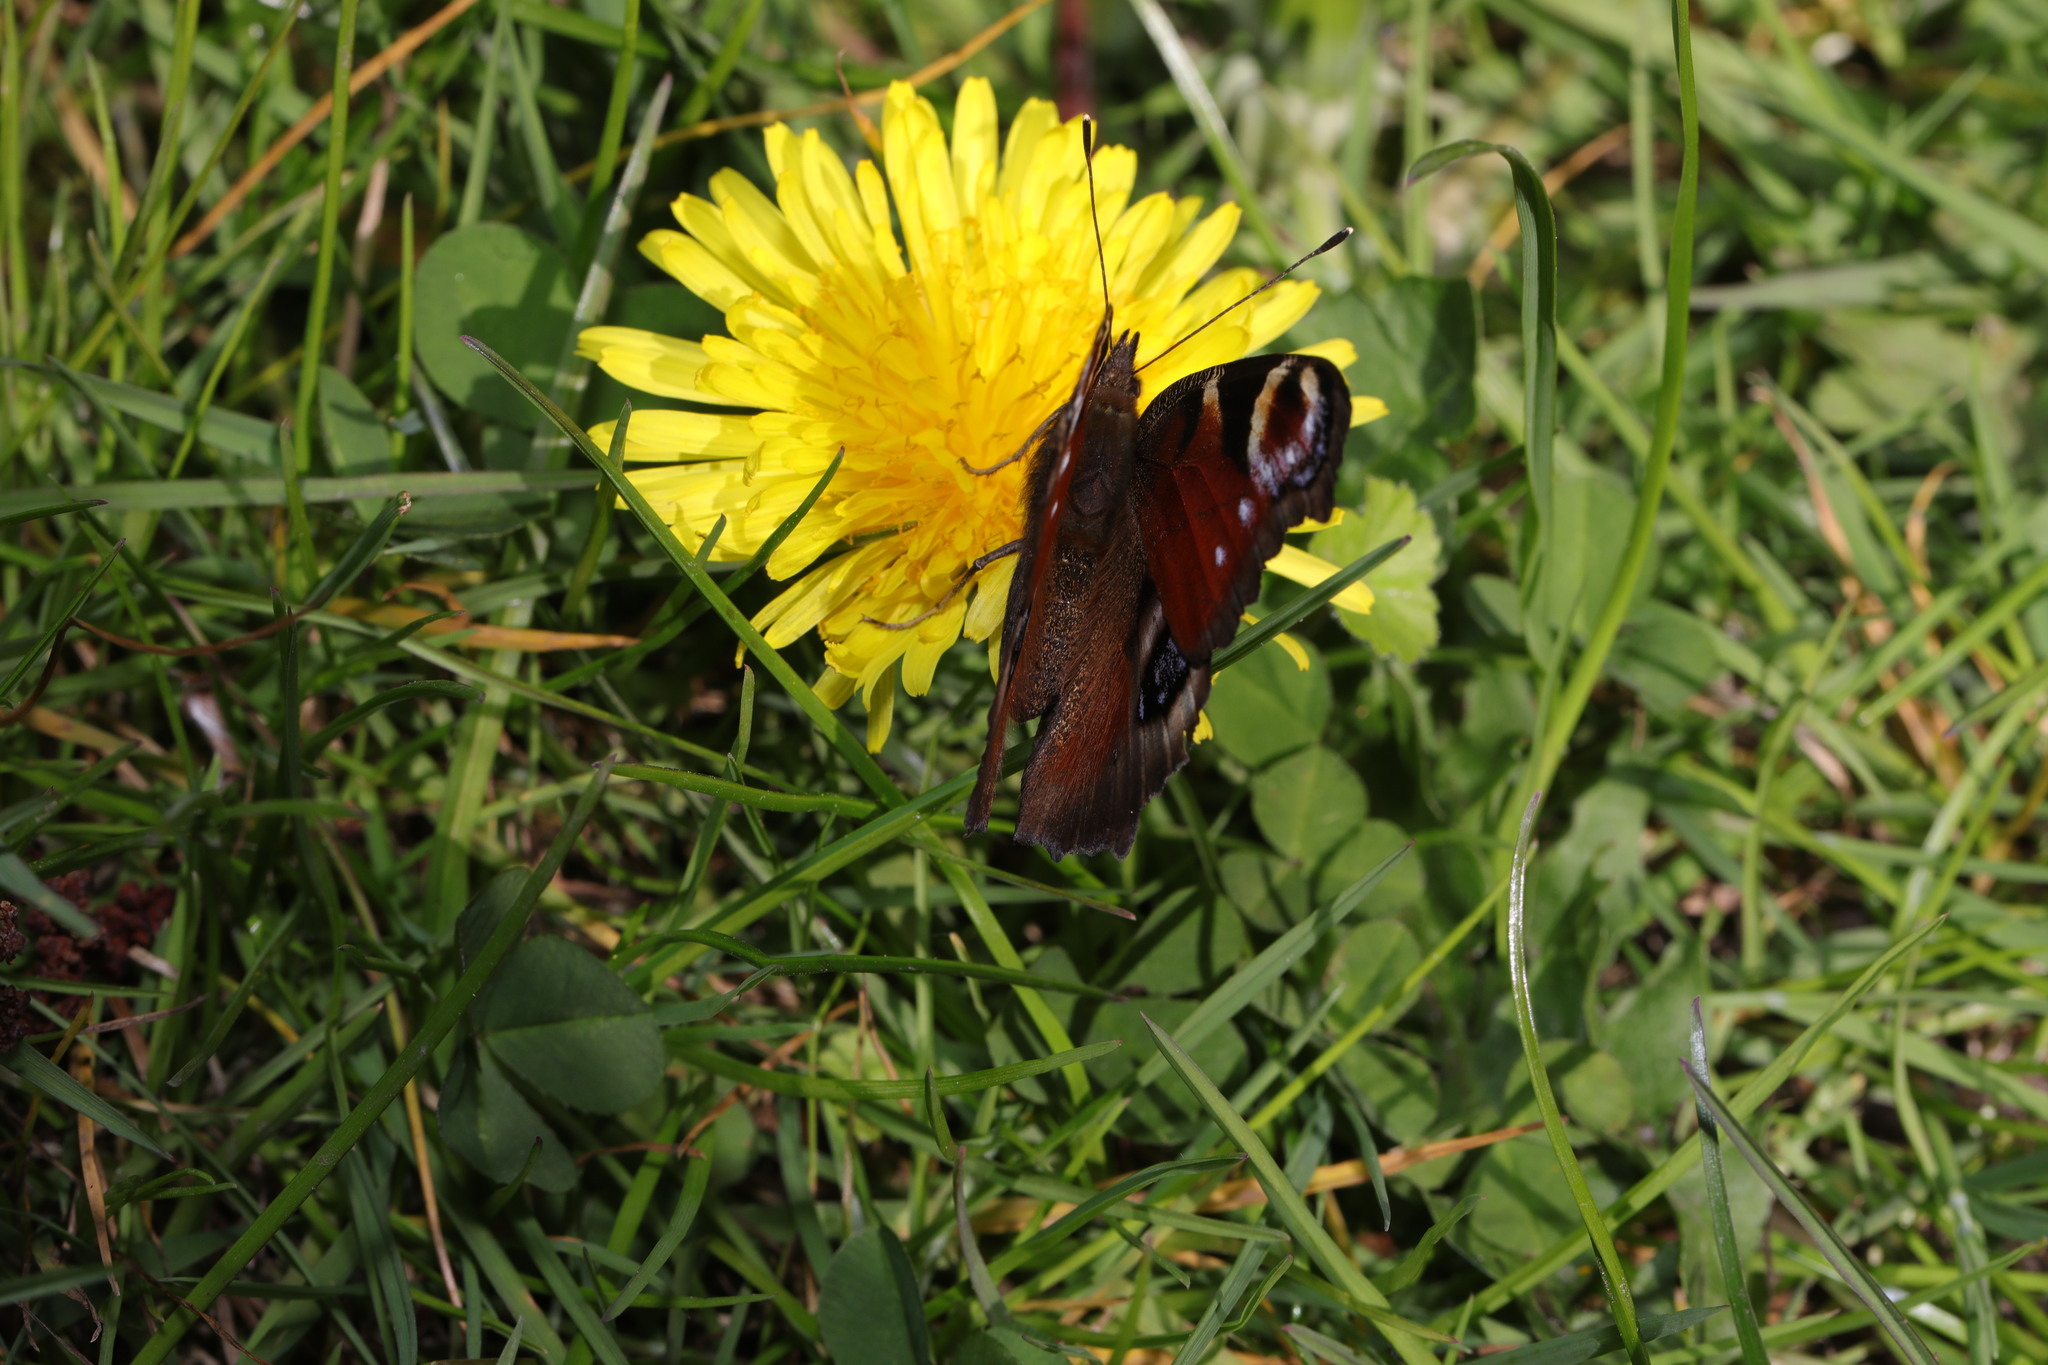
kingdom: Animalia
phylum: Arthropoda
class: Insecta
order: Lepidoptera
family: Nymphalidae
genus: Aglais
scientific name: Aglais io
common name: Peacock
